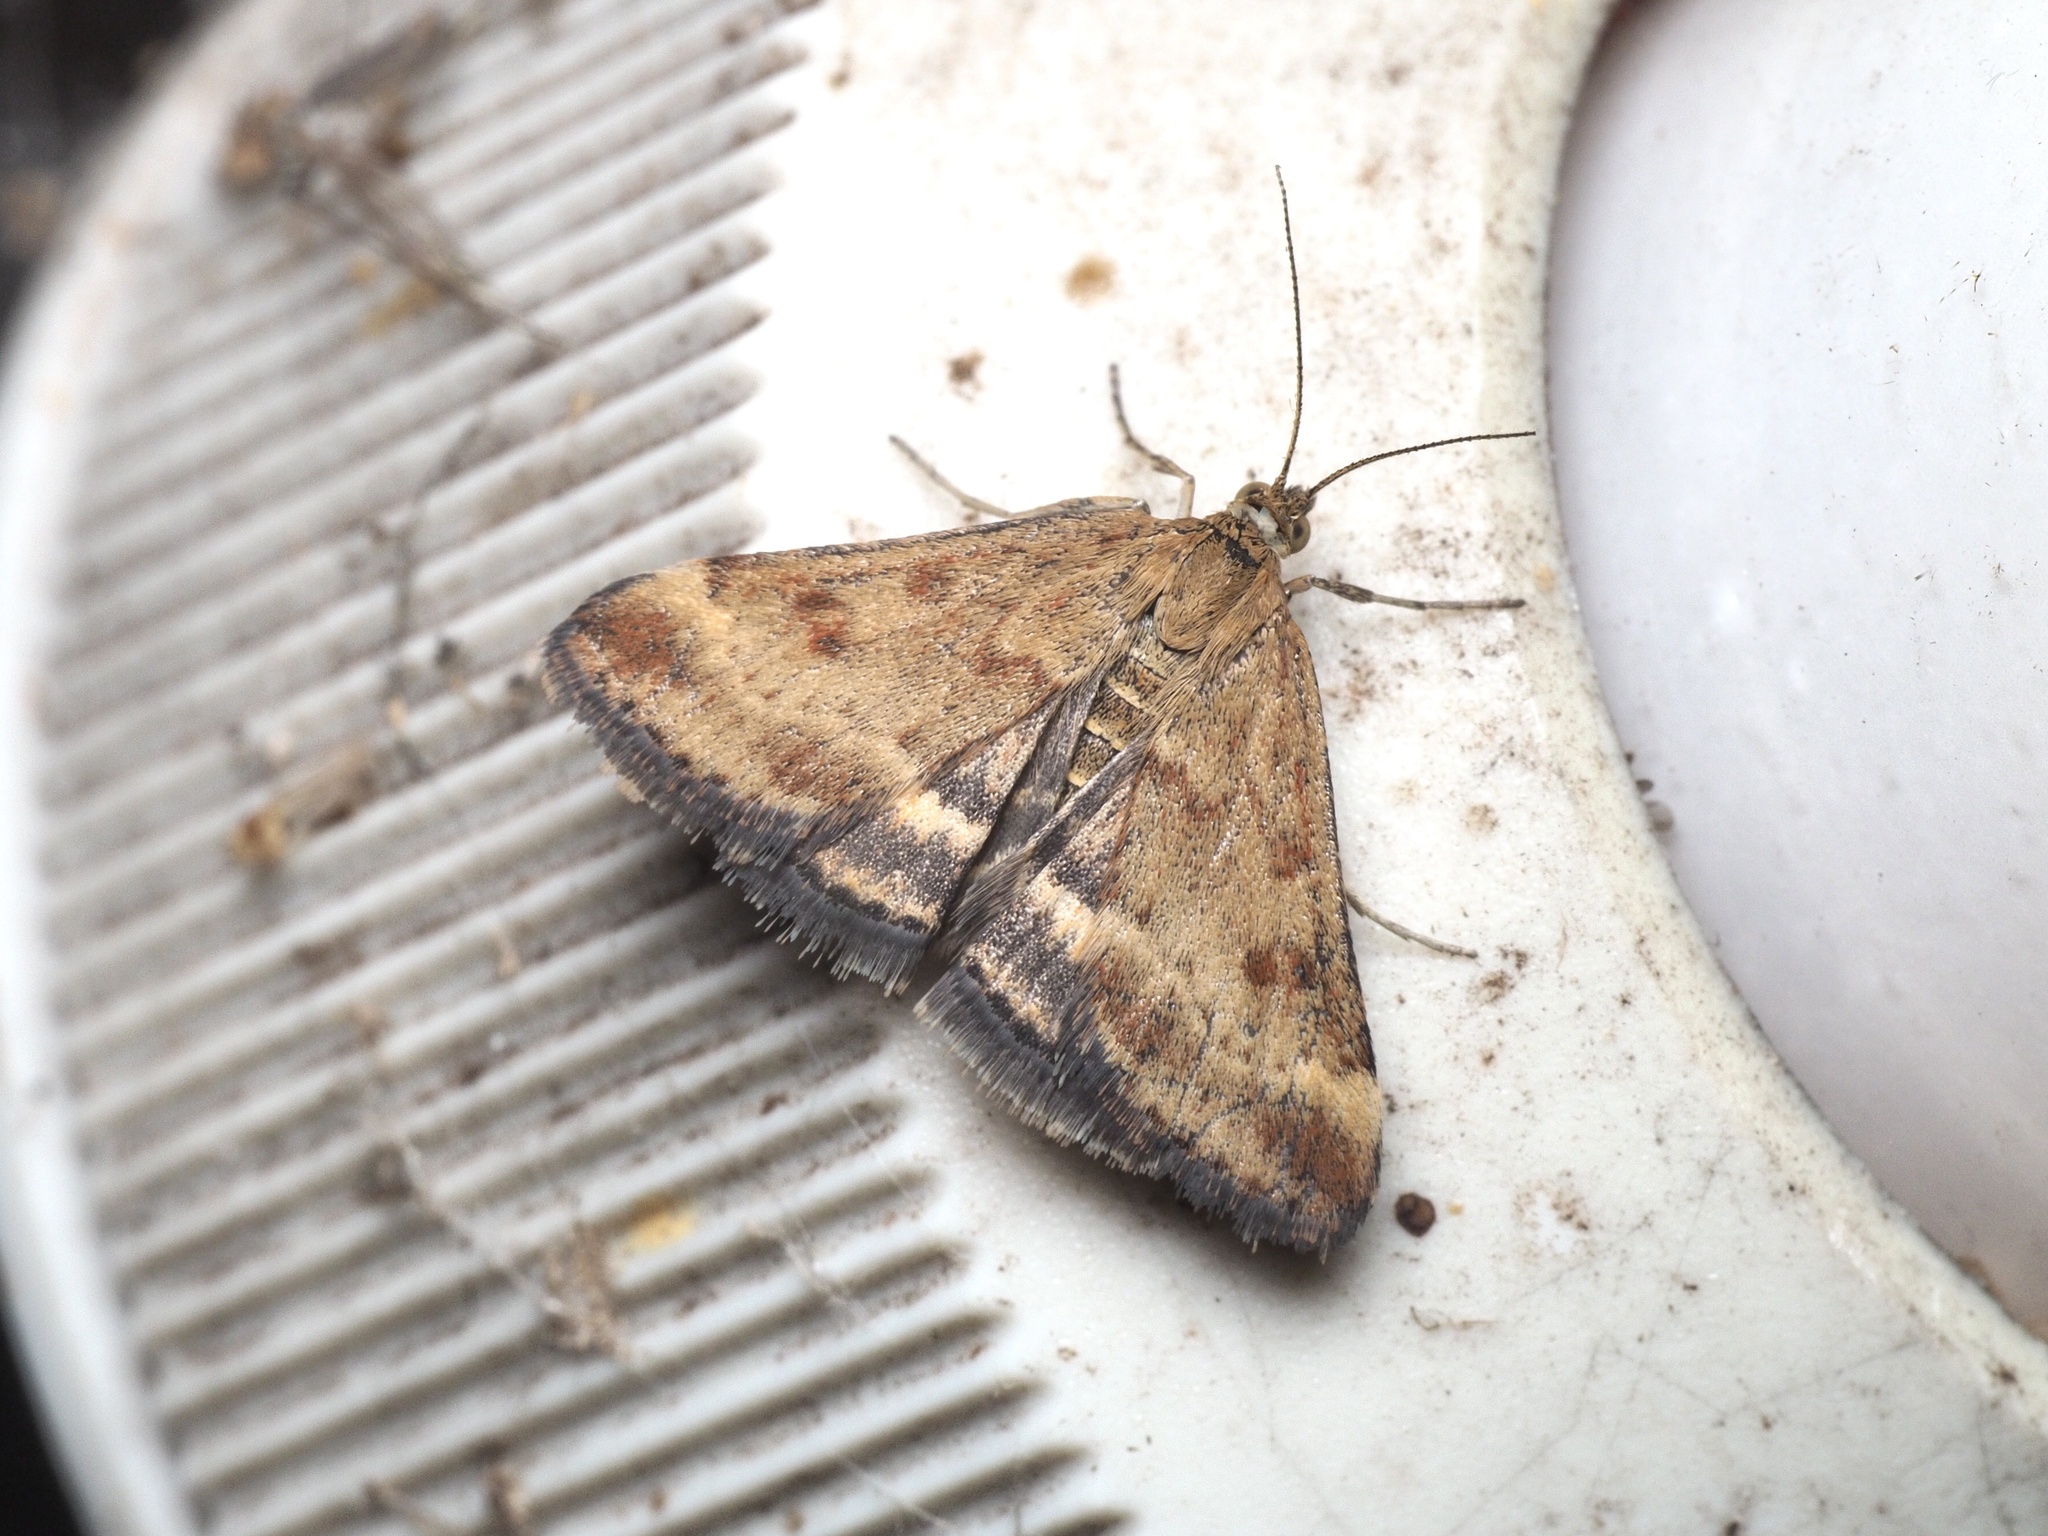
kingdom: Animalia
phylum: Arthropoda
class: Insecta
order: Lepidoptera
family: Crambidae
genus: Pyrausta
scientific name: Pyrausta despicata
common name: Straw-barred pearl
